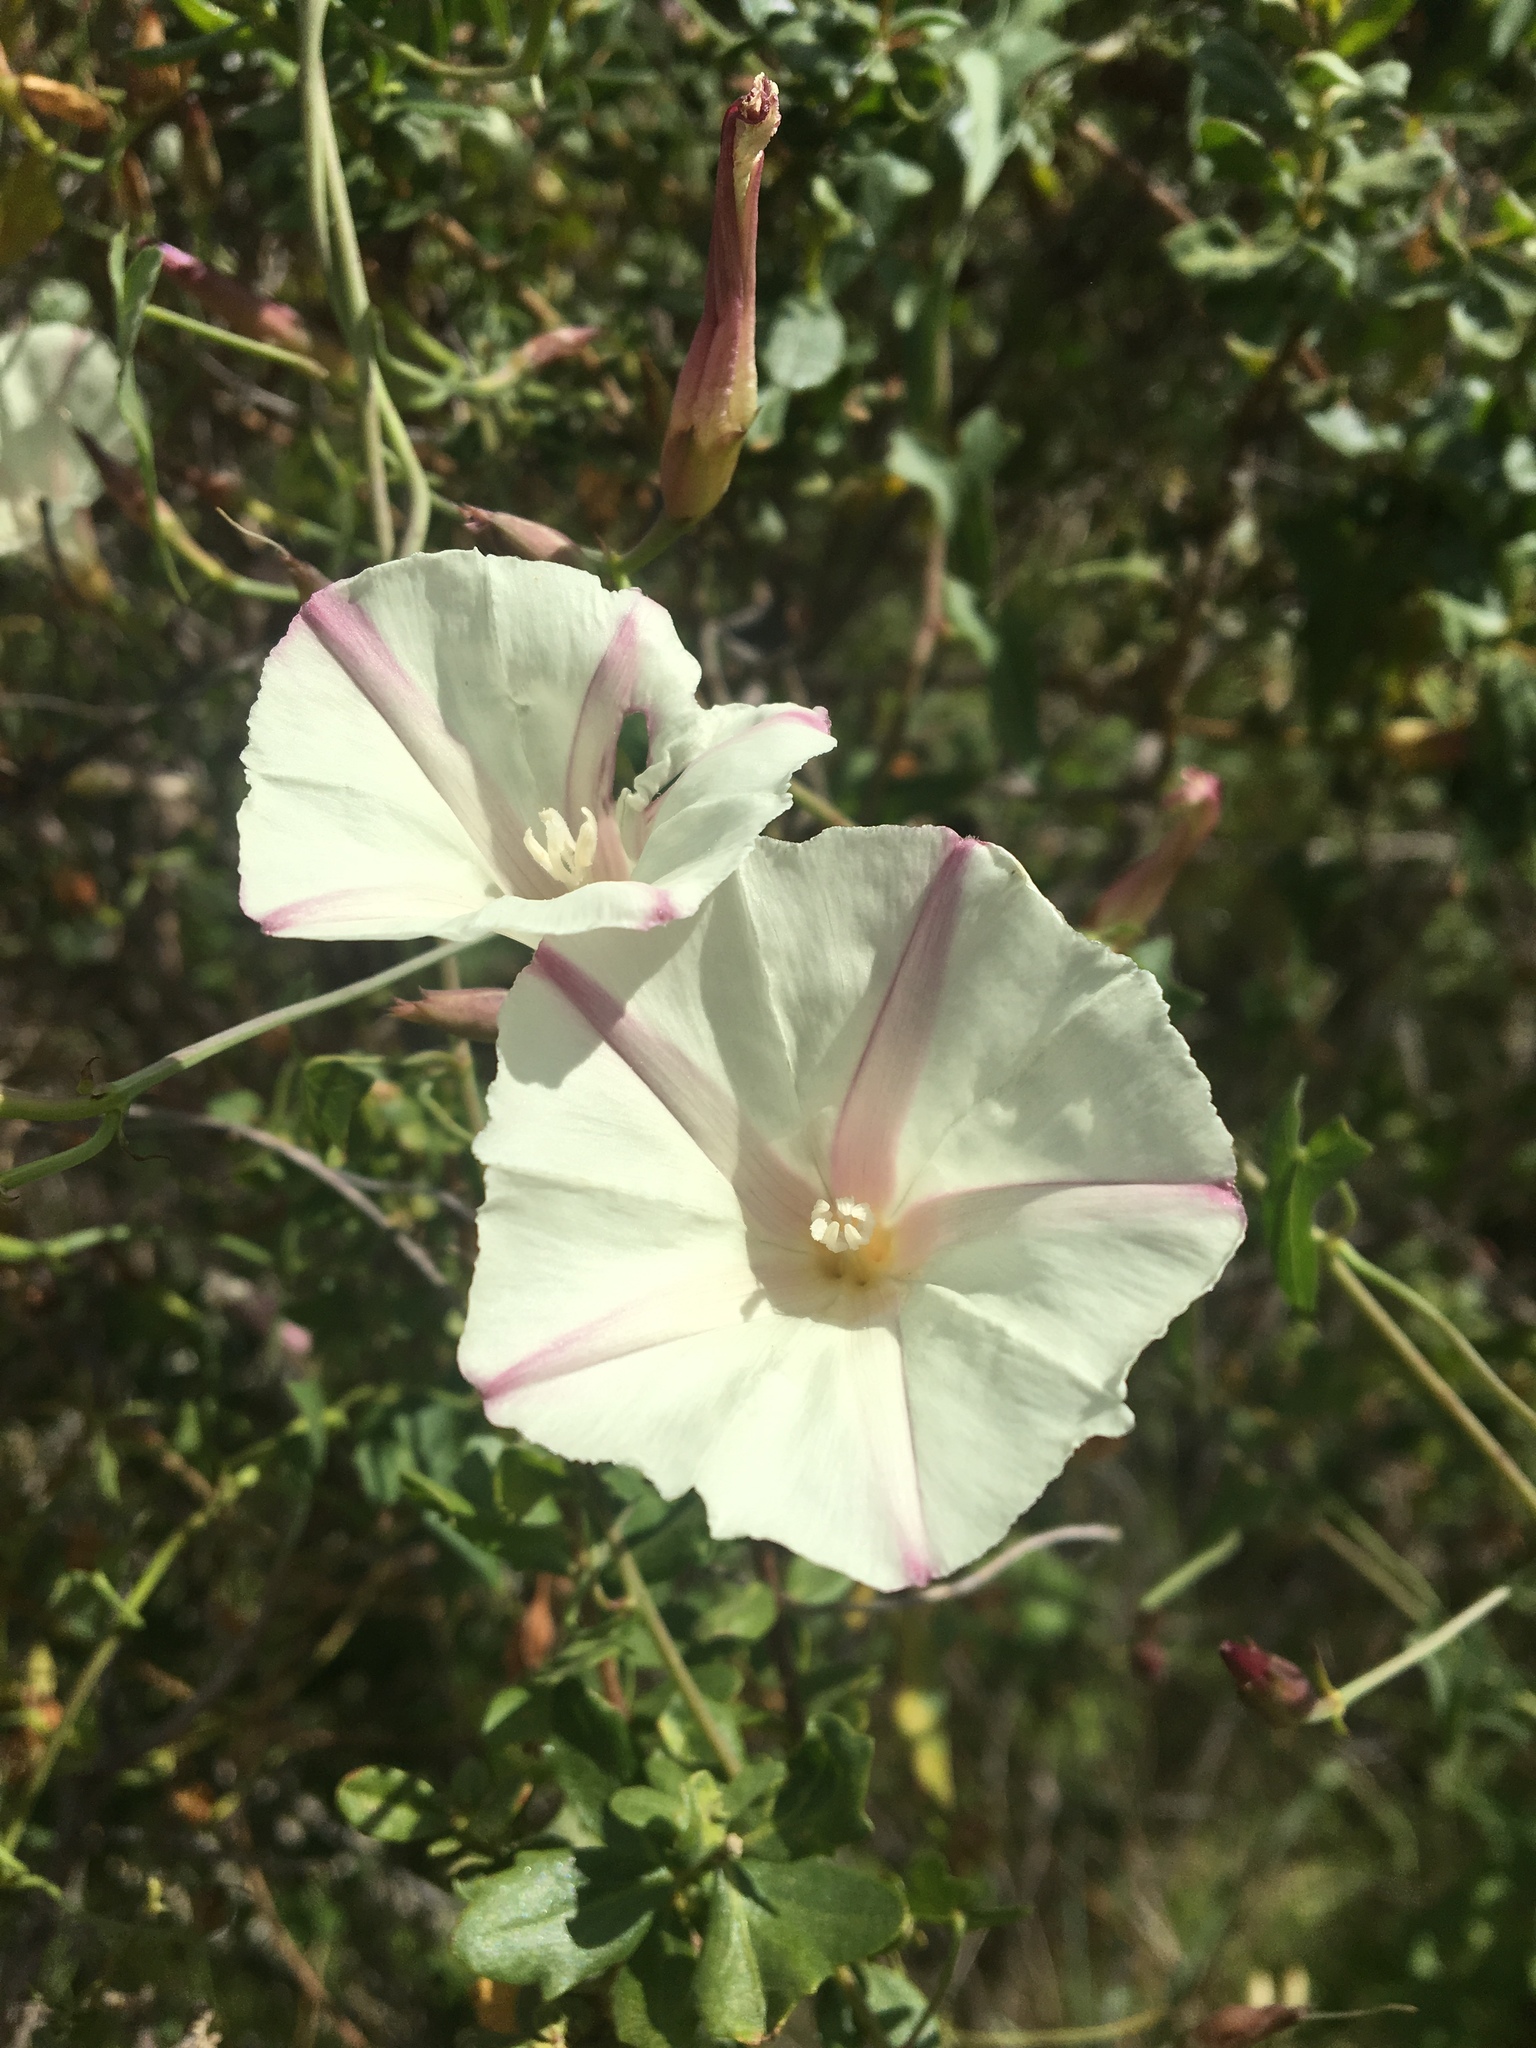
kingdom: Plantae
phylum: Tracheophyta
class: Magnoliopsida
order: Solanales
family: Convolvulaceae
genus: Calystegia
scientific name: Calystegia purpurata
